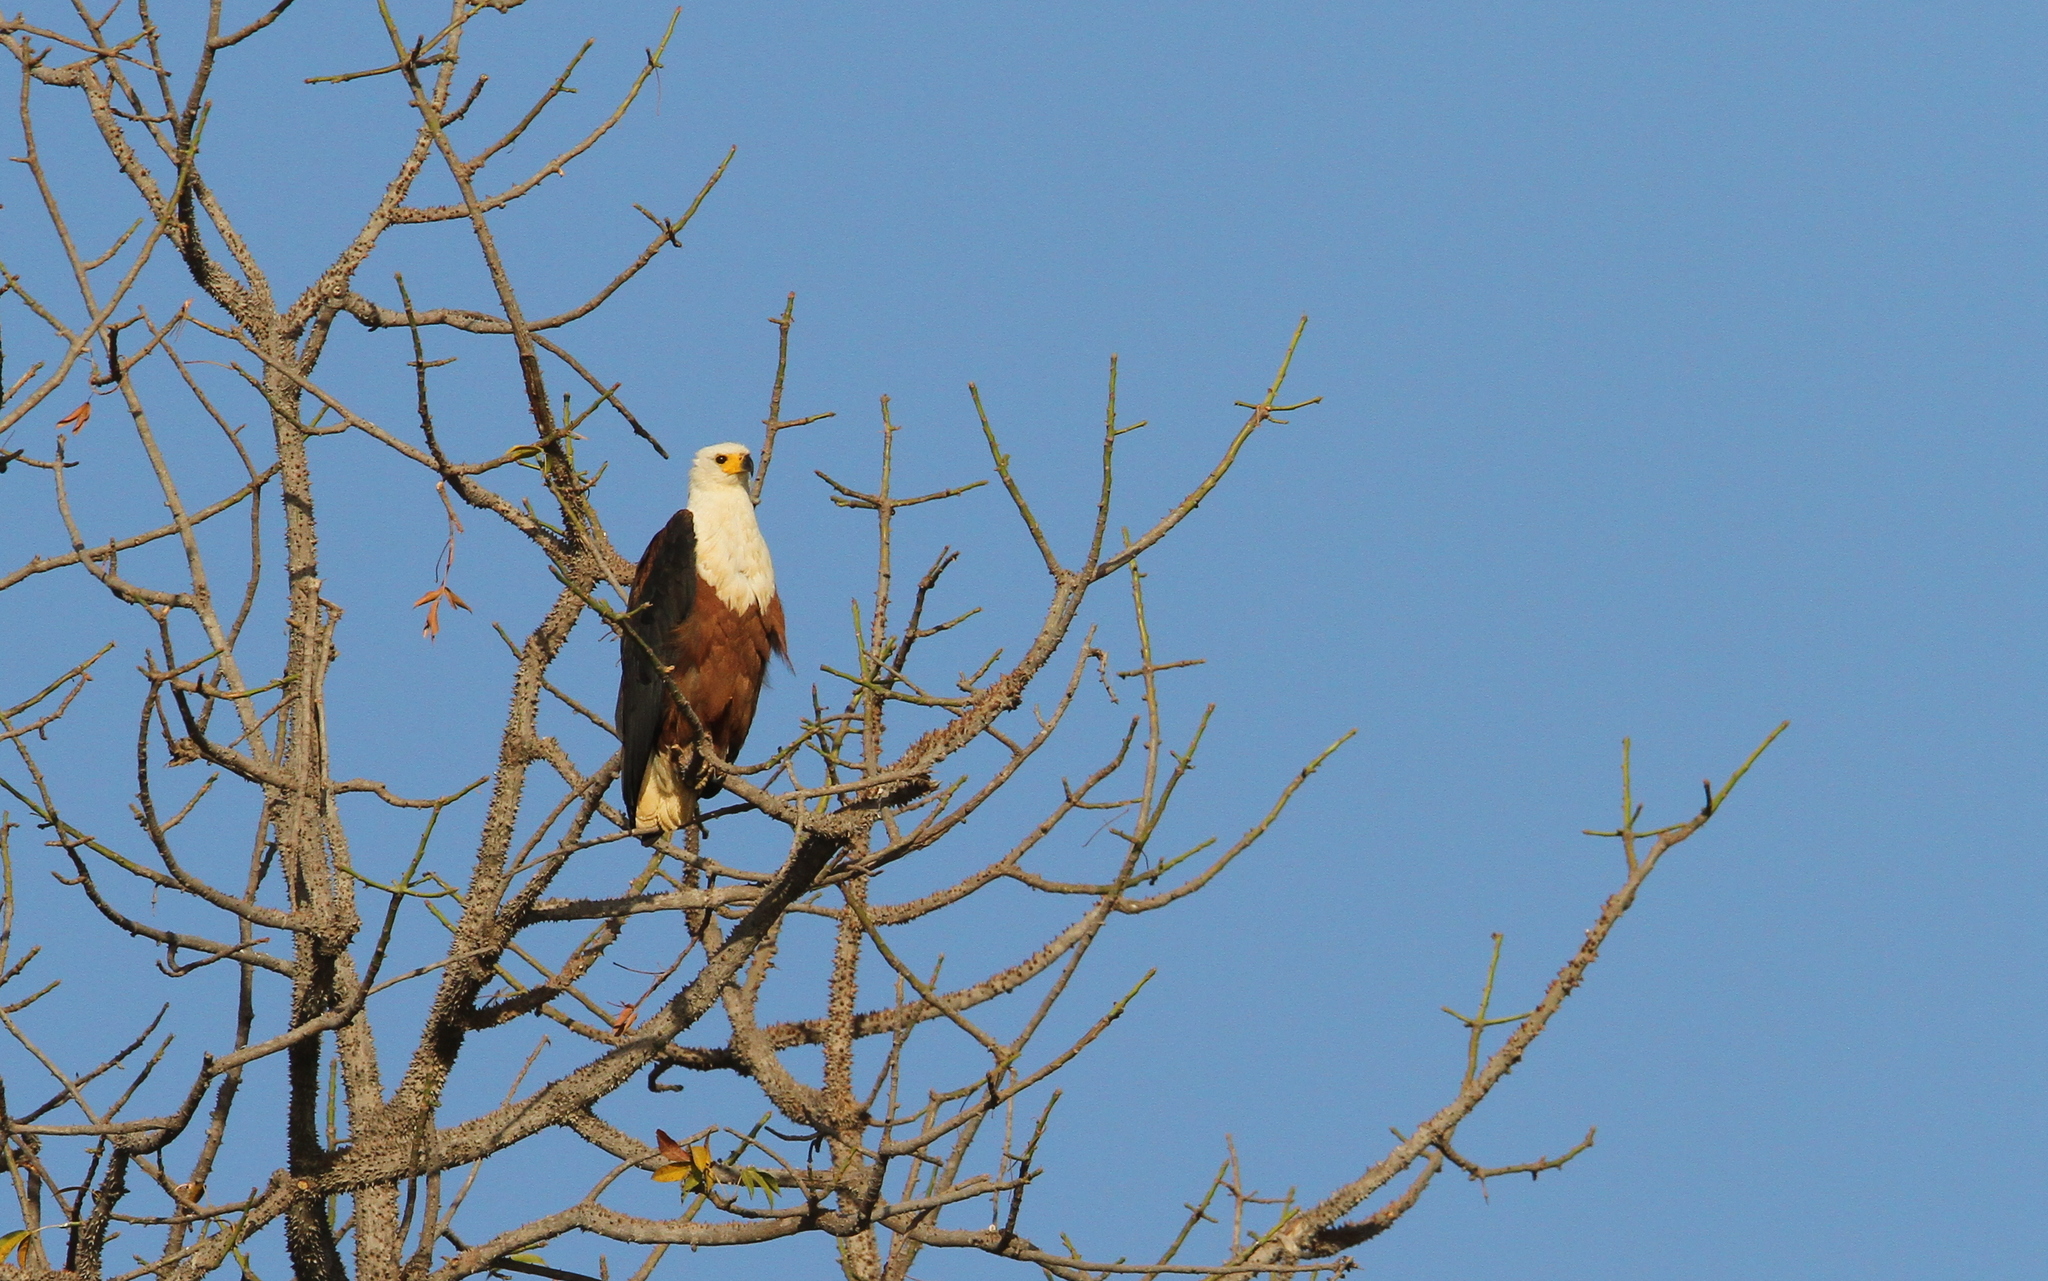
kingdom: Animalia
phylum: Chordata
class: Aves
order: Accipitriformes
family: Accipitridae
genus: Haliaeetus
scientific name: Haliaeetus vocifer
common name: African fish eagle
